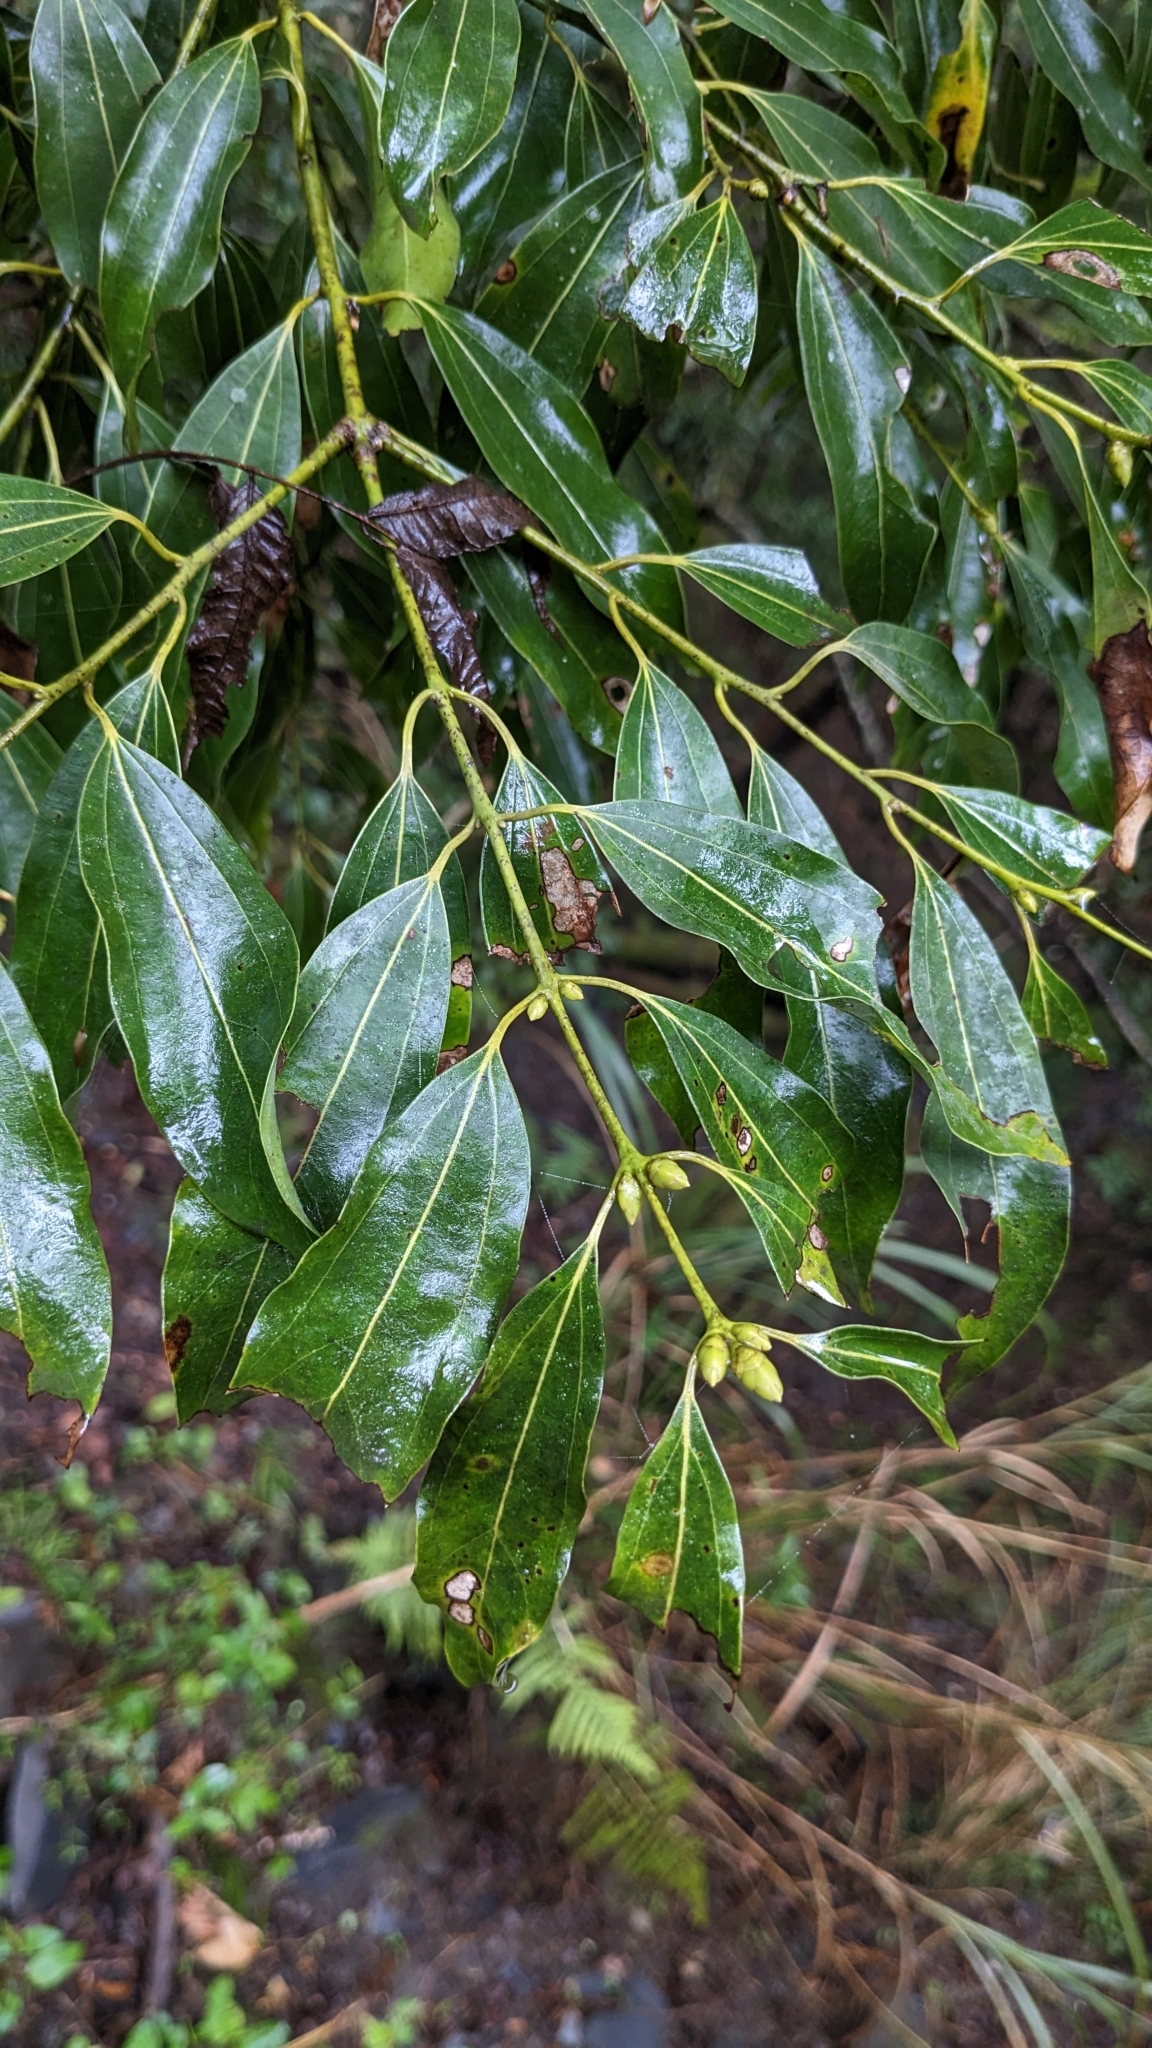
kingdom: Plantae
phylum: Tracheophyta
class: Magnoliopsida
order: Laurales
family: Lauraceae
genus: Cinnamomum
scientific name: Cinnamomum chekiangense
